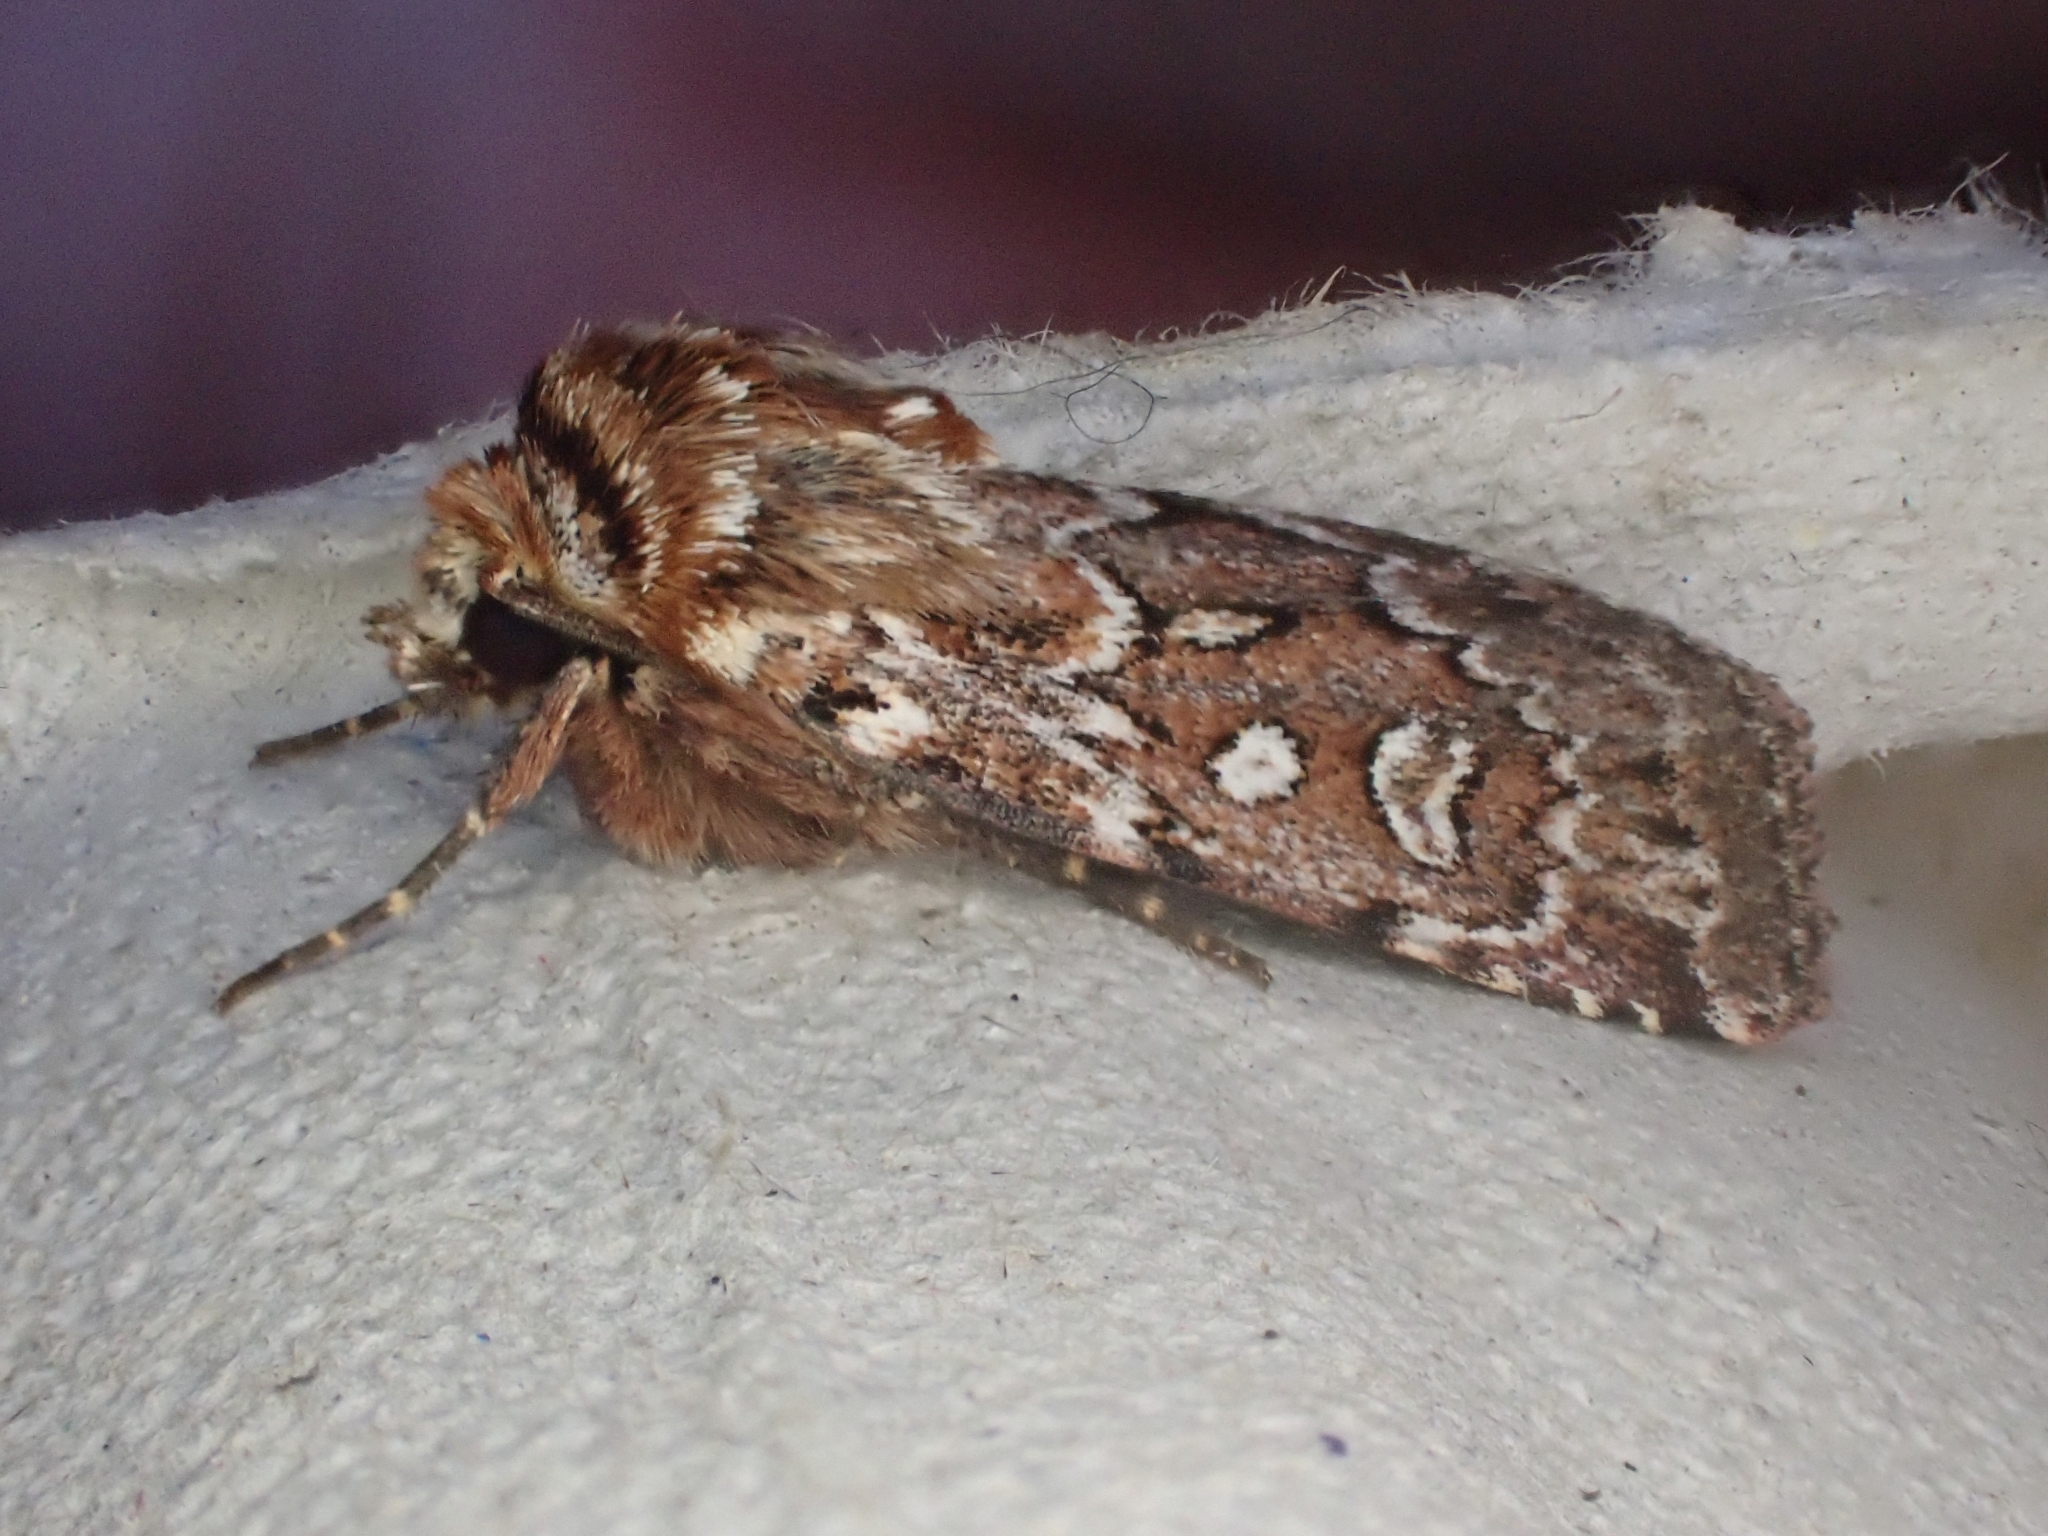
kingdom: Animalia
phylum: Arthropoda
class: Insecta
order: Lepidoptera
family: Noctuidae
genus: Lycophotia
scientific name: Lycophotia porphyrea
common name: True lover's knot
